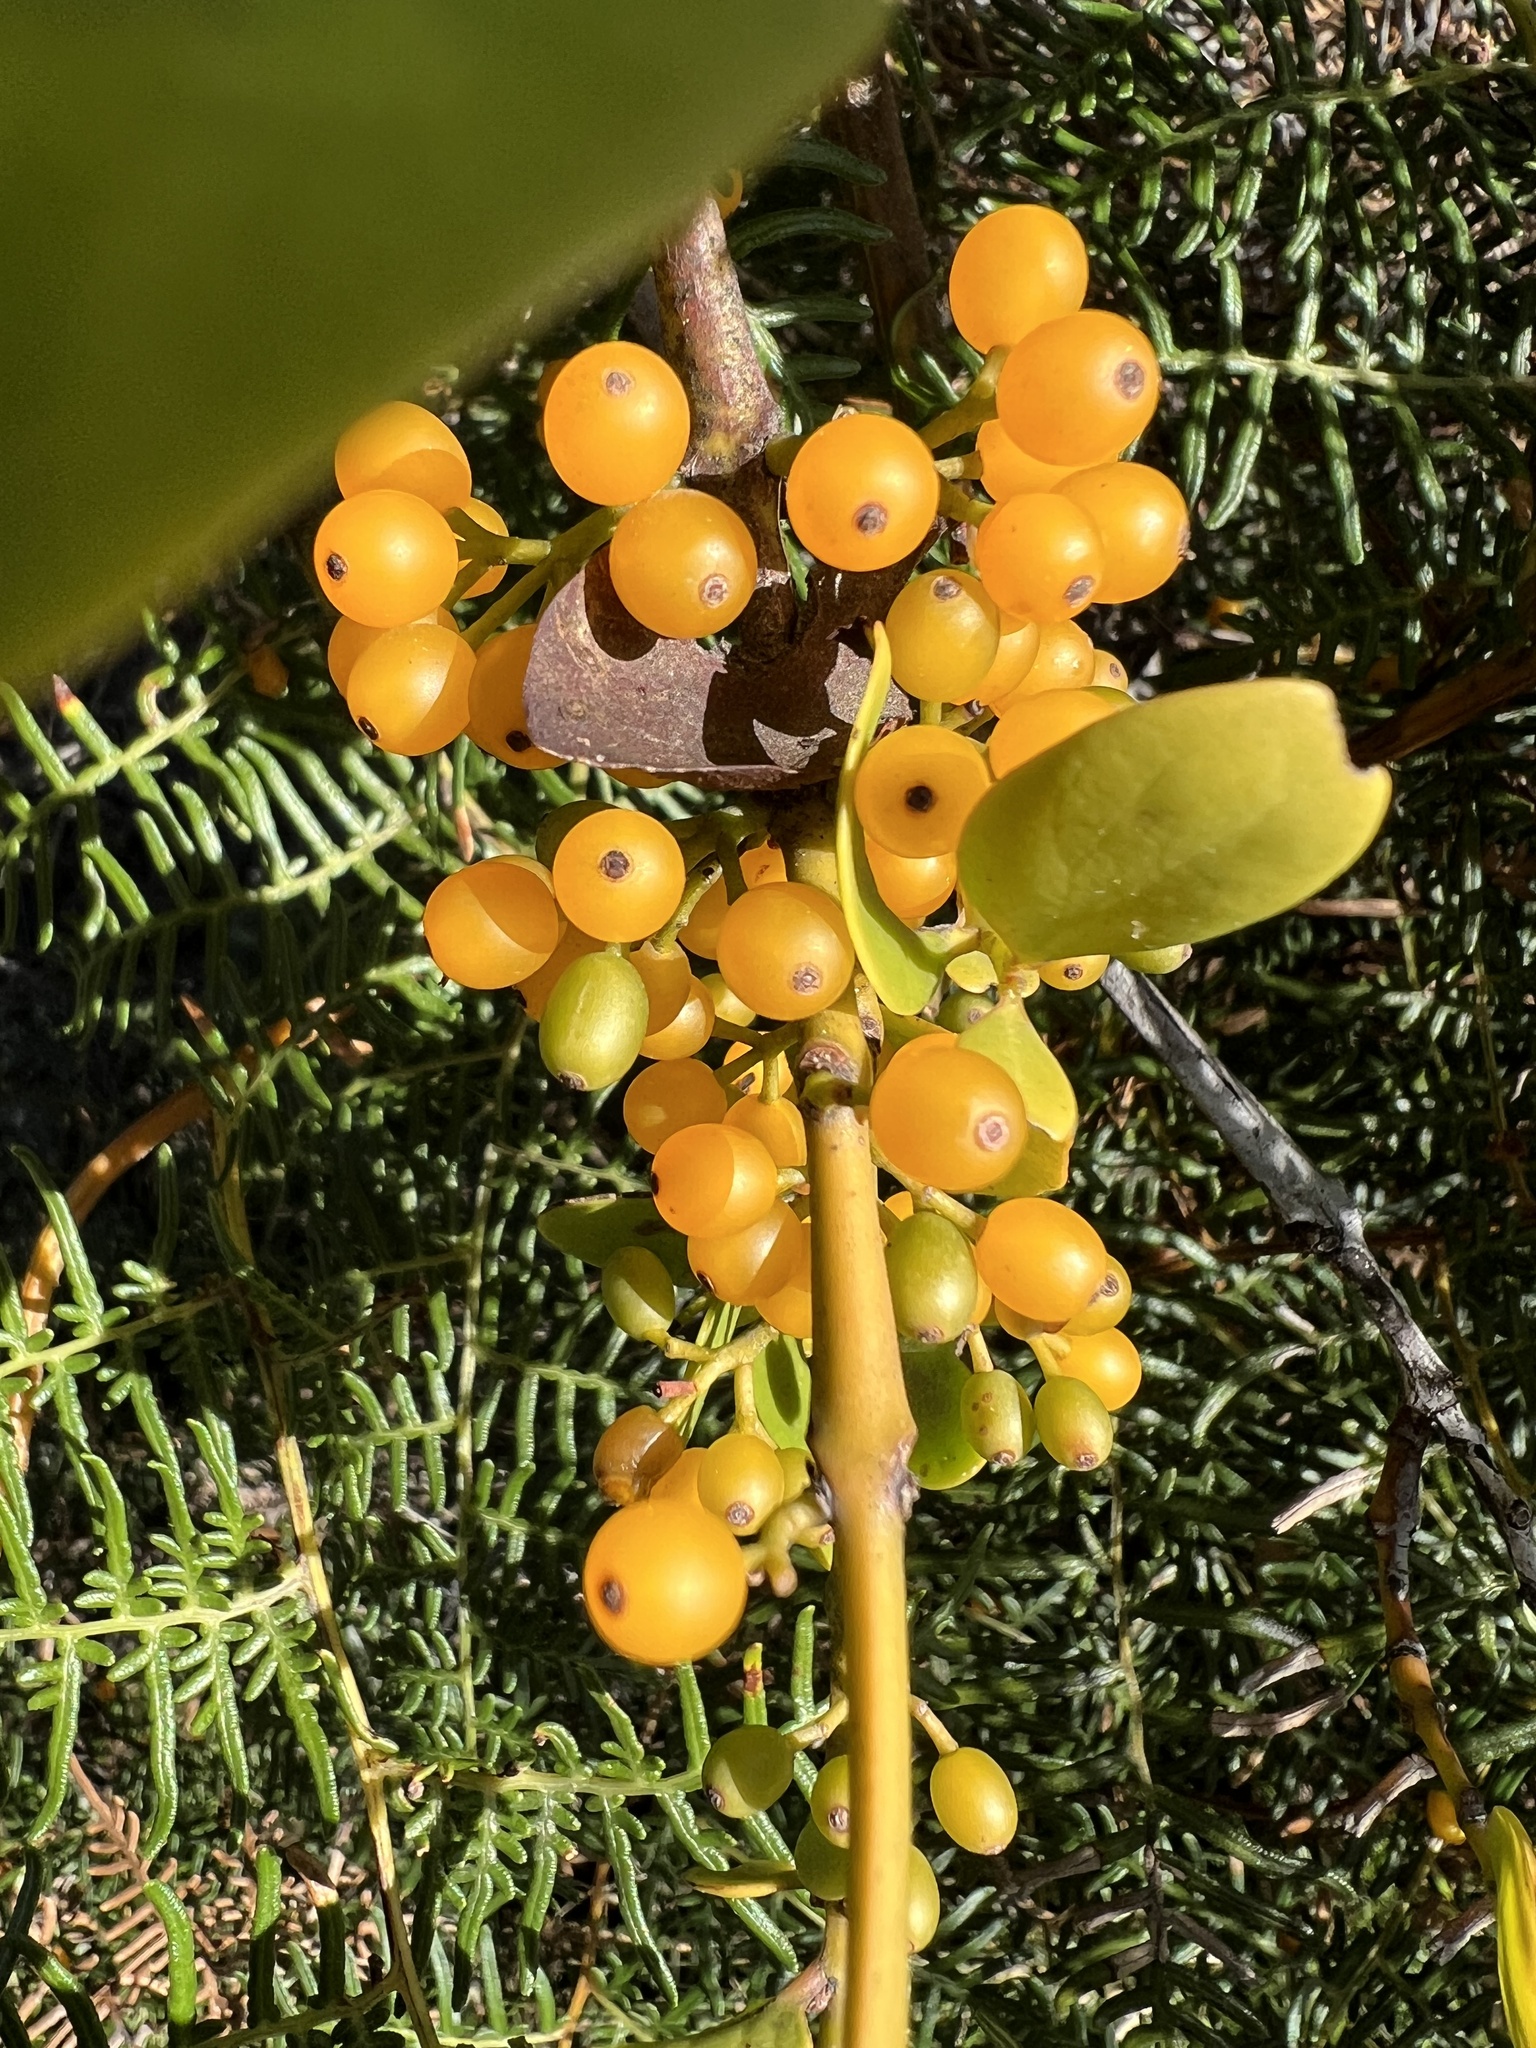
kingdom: Plantae
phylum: Tracheophyta
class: Magnoliopsida
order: Santalales
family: Loranthaceae
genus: Ileostylus
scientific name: Ileostylus micranthus
